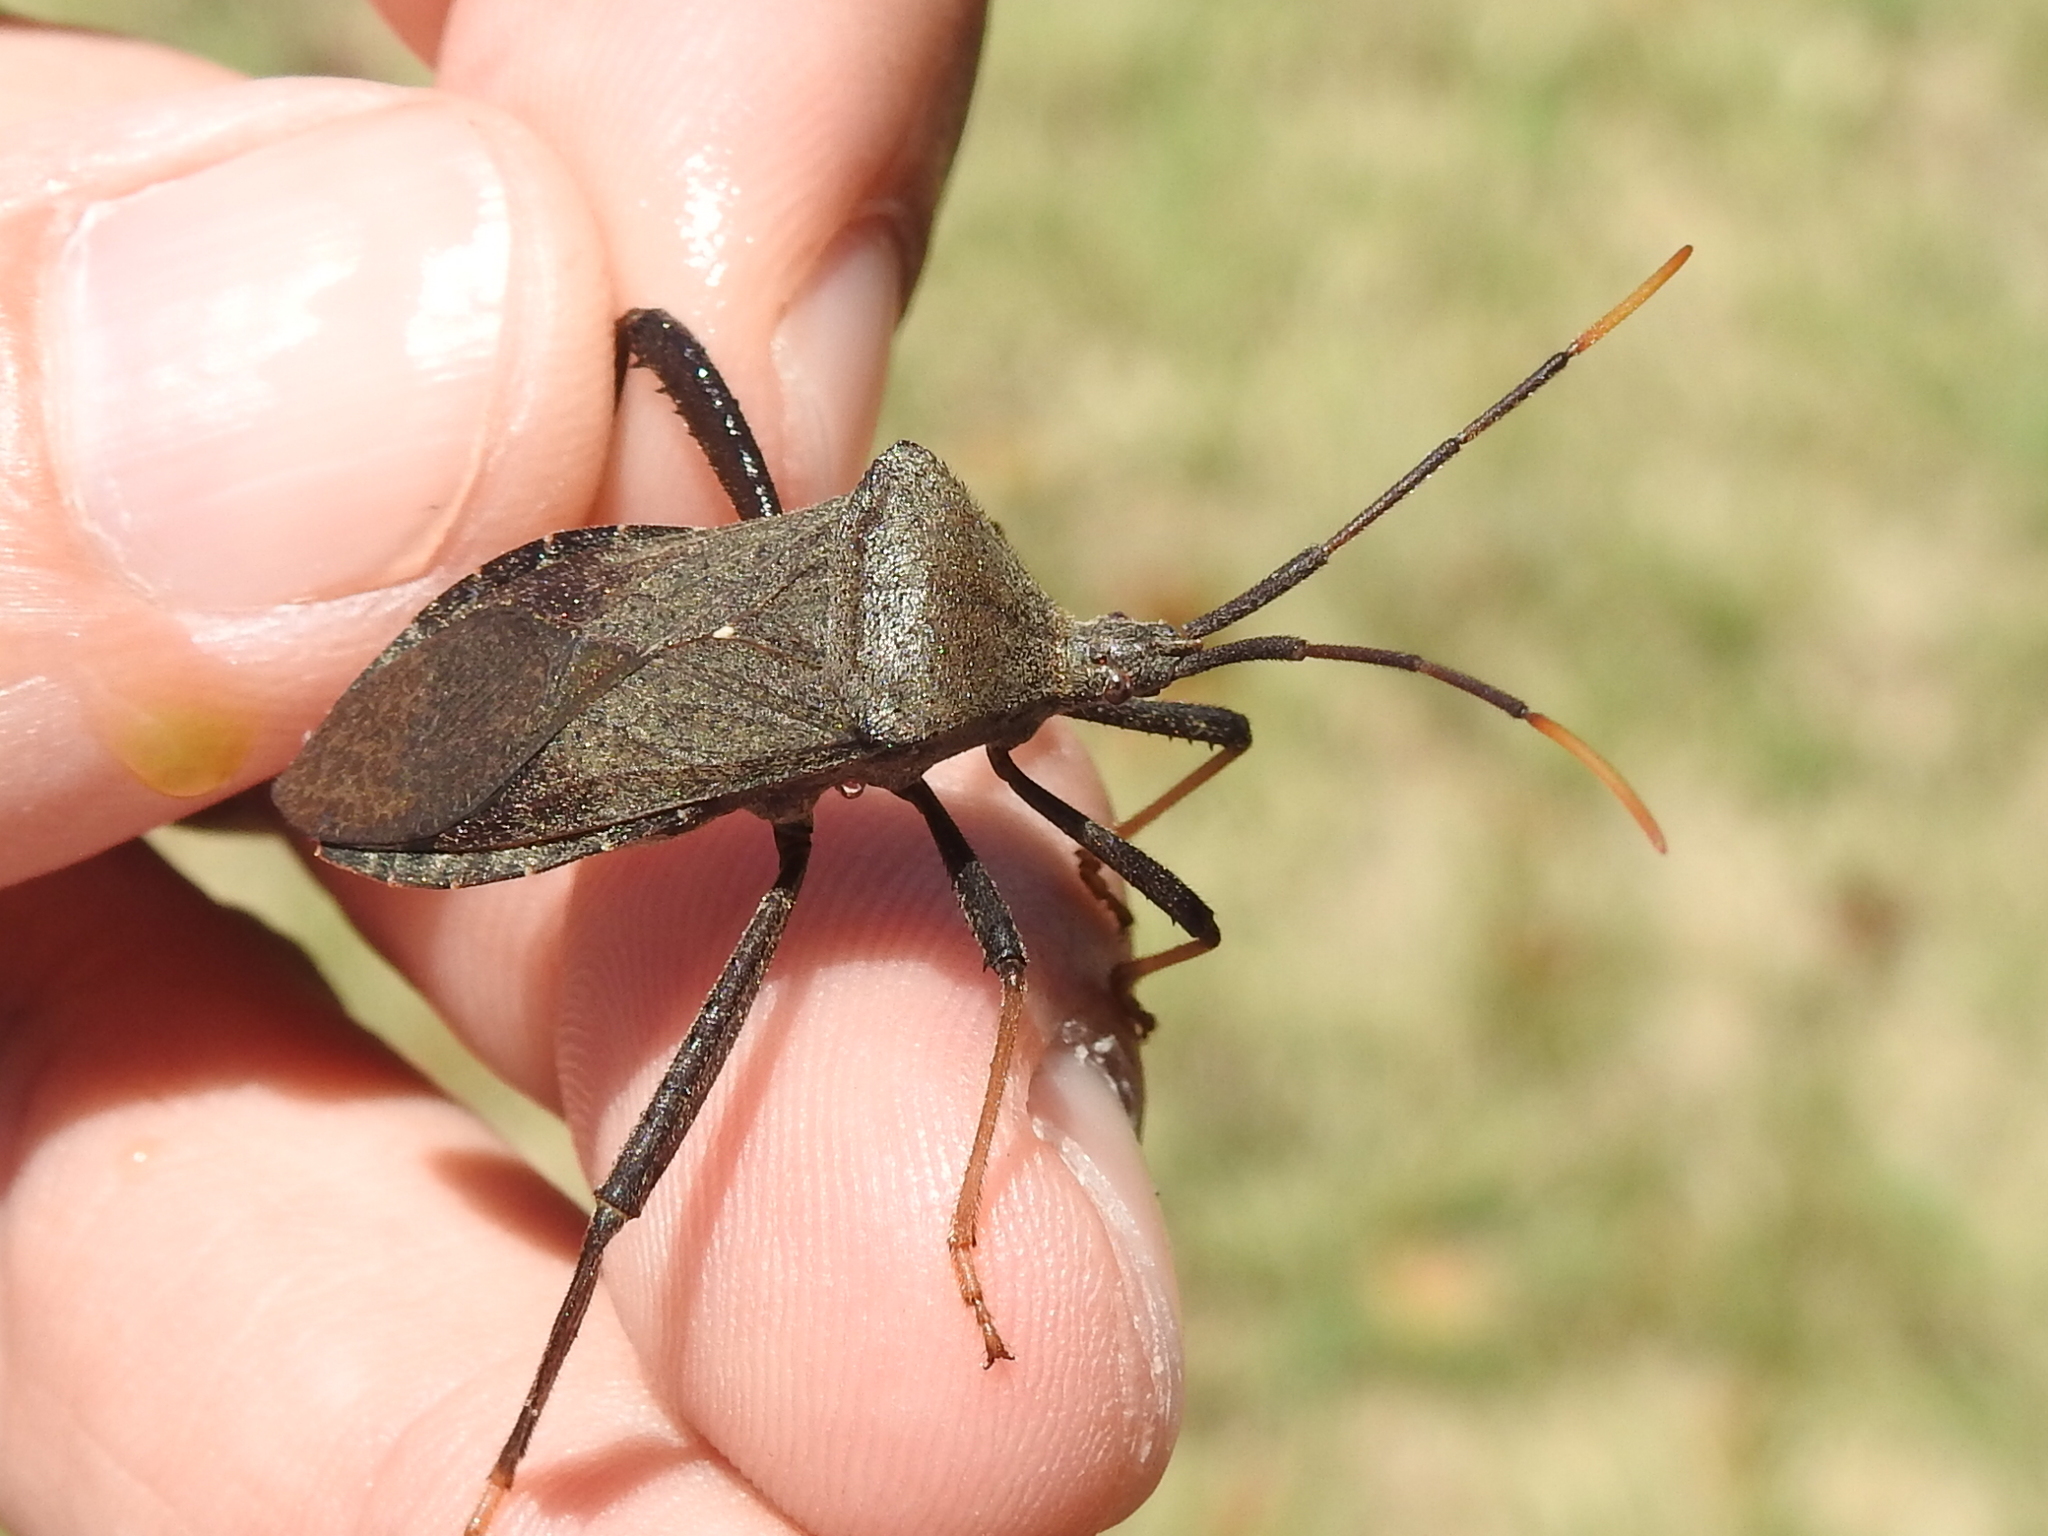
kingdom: Animalia
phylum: Arthropoda
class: Insecta
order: Hemiptera
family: Coreidae
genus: Acanthocephala
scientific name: Acanthocephala terminalis
